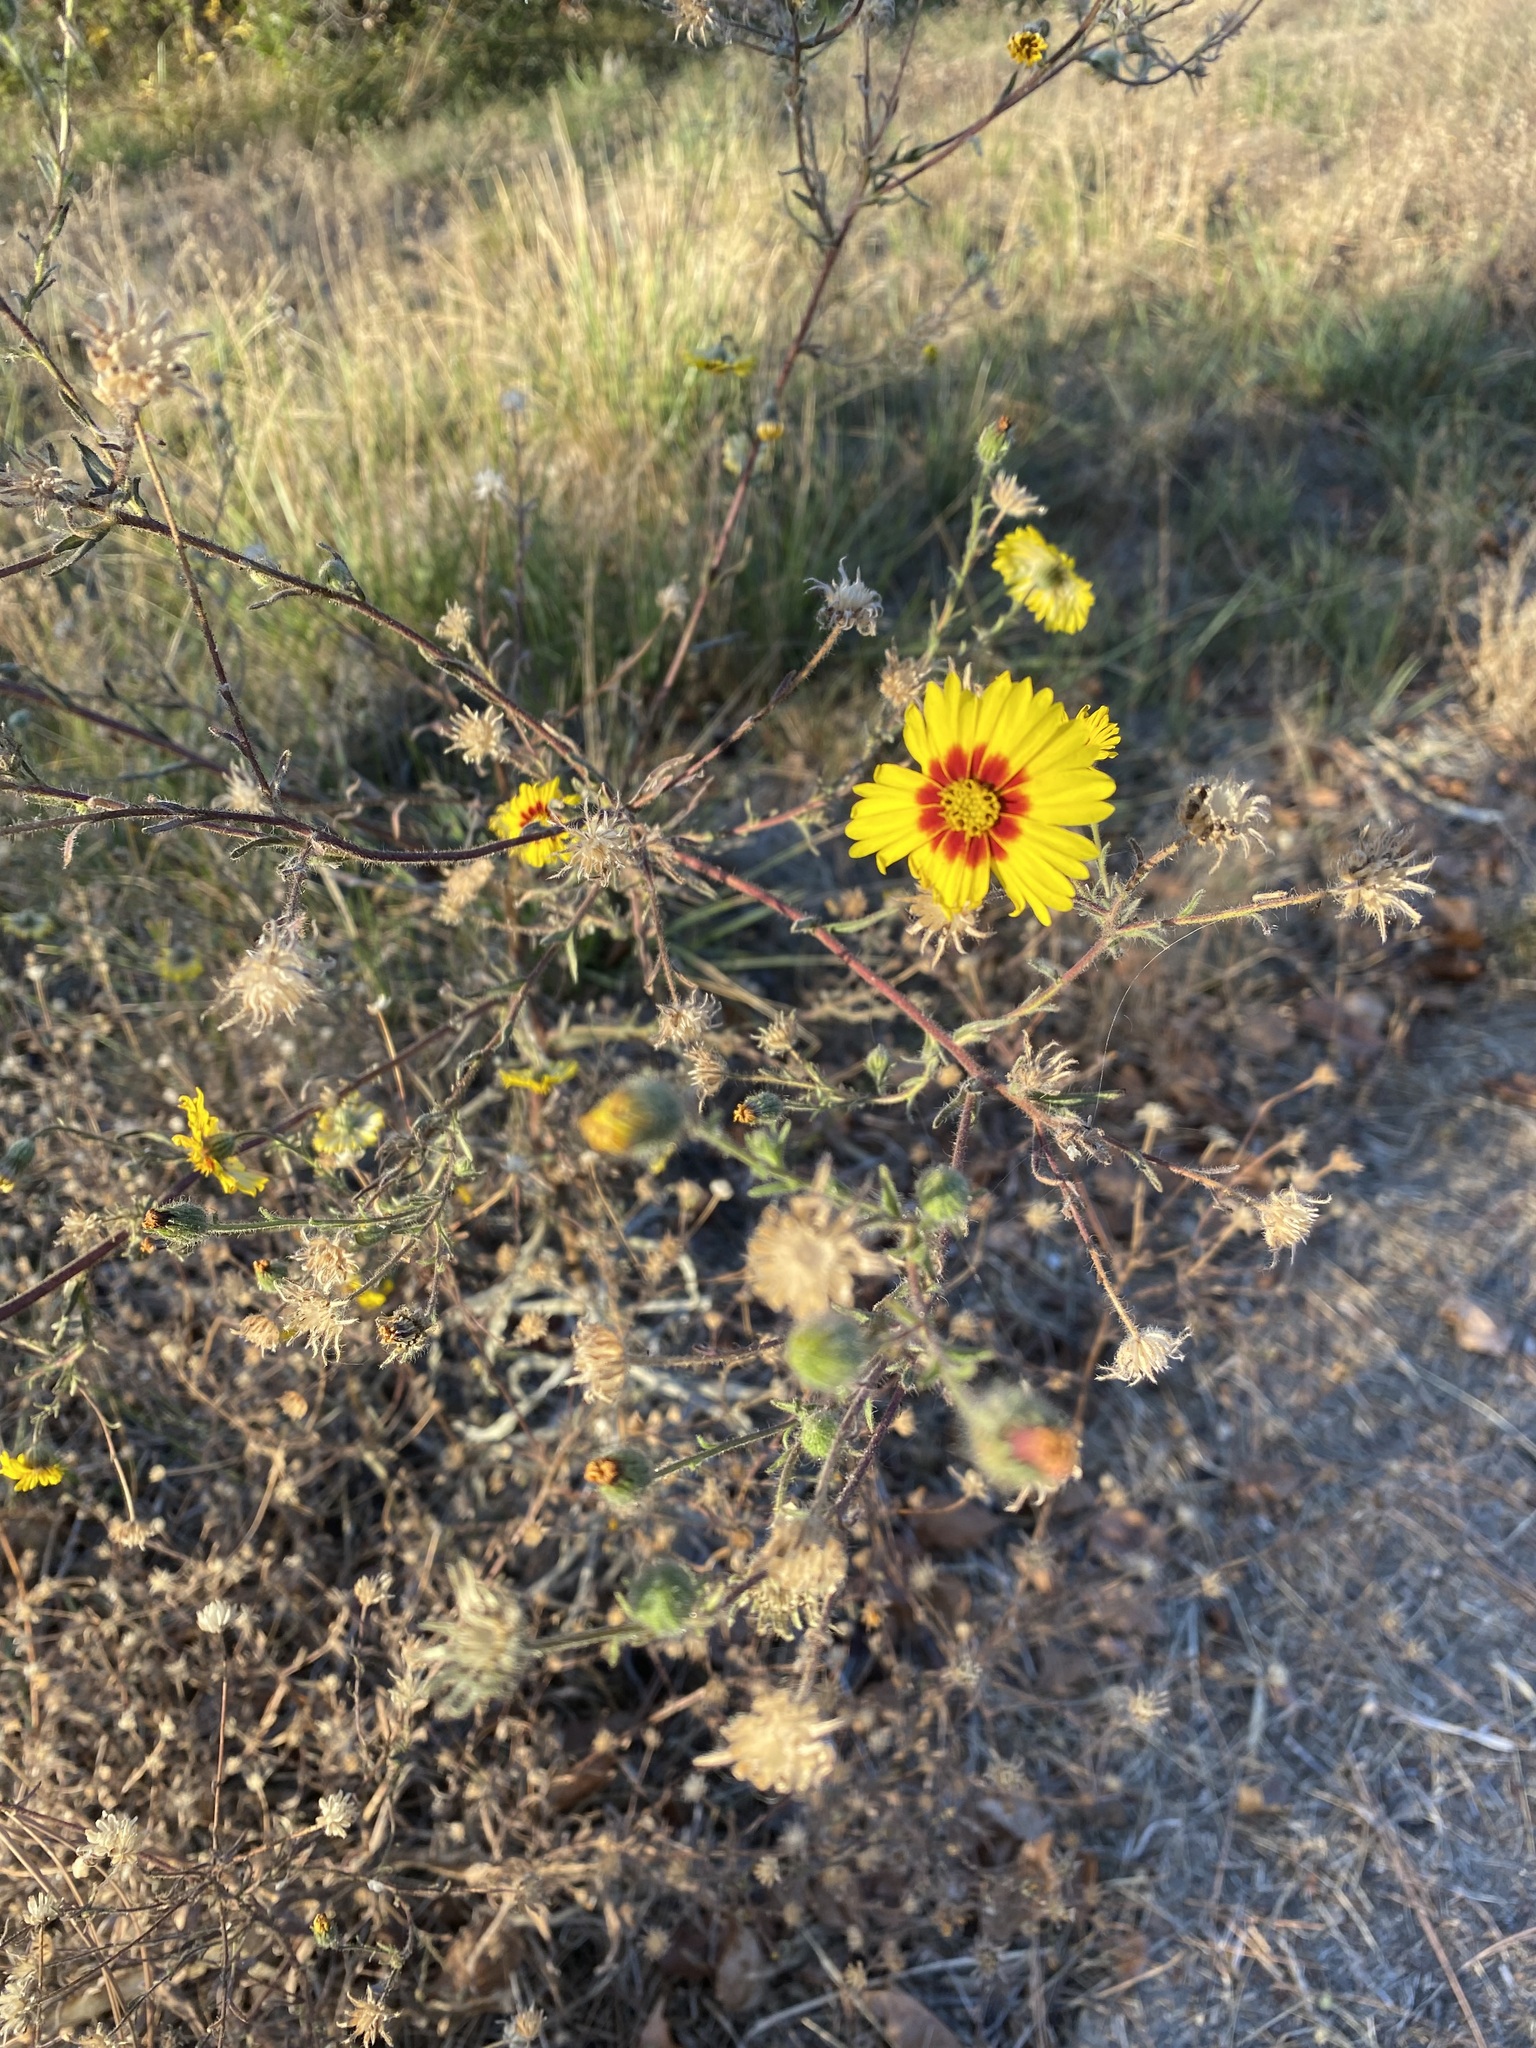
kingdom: Plantae
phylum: Tracheophyta
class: Magnoliopsida
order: Asterales
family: Asteraceae
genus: Madia
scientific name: Madia elegans
